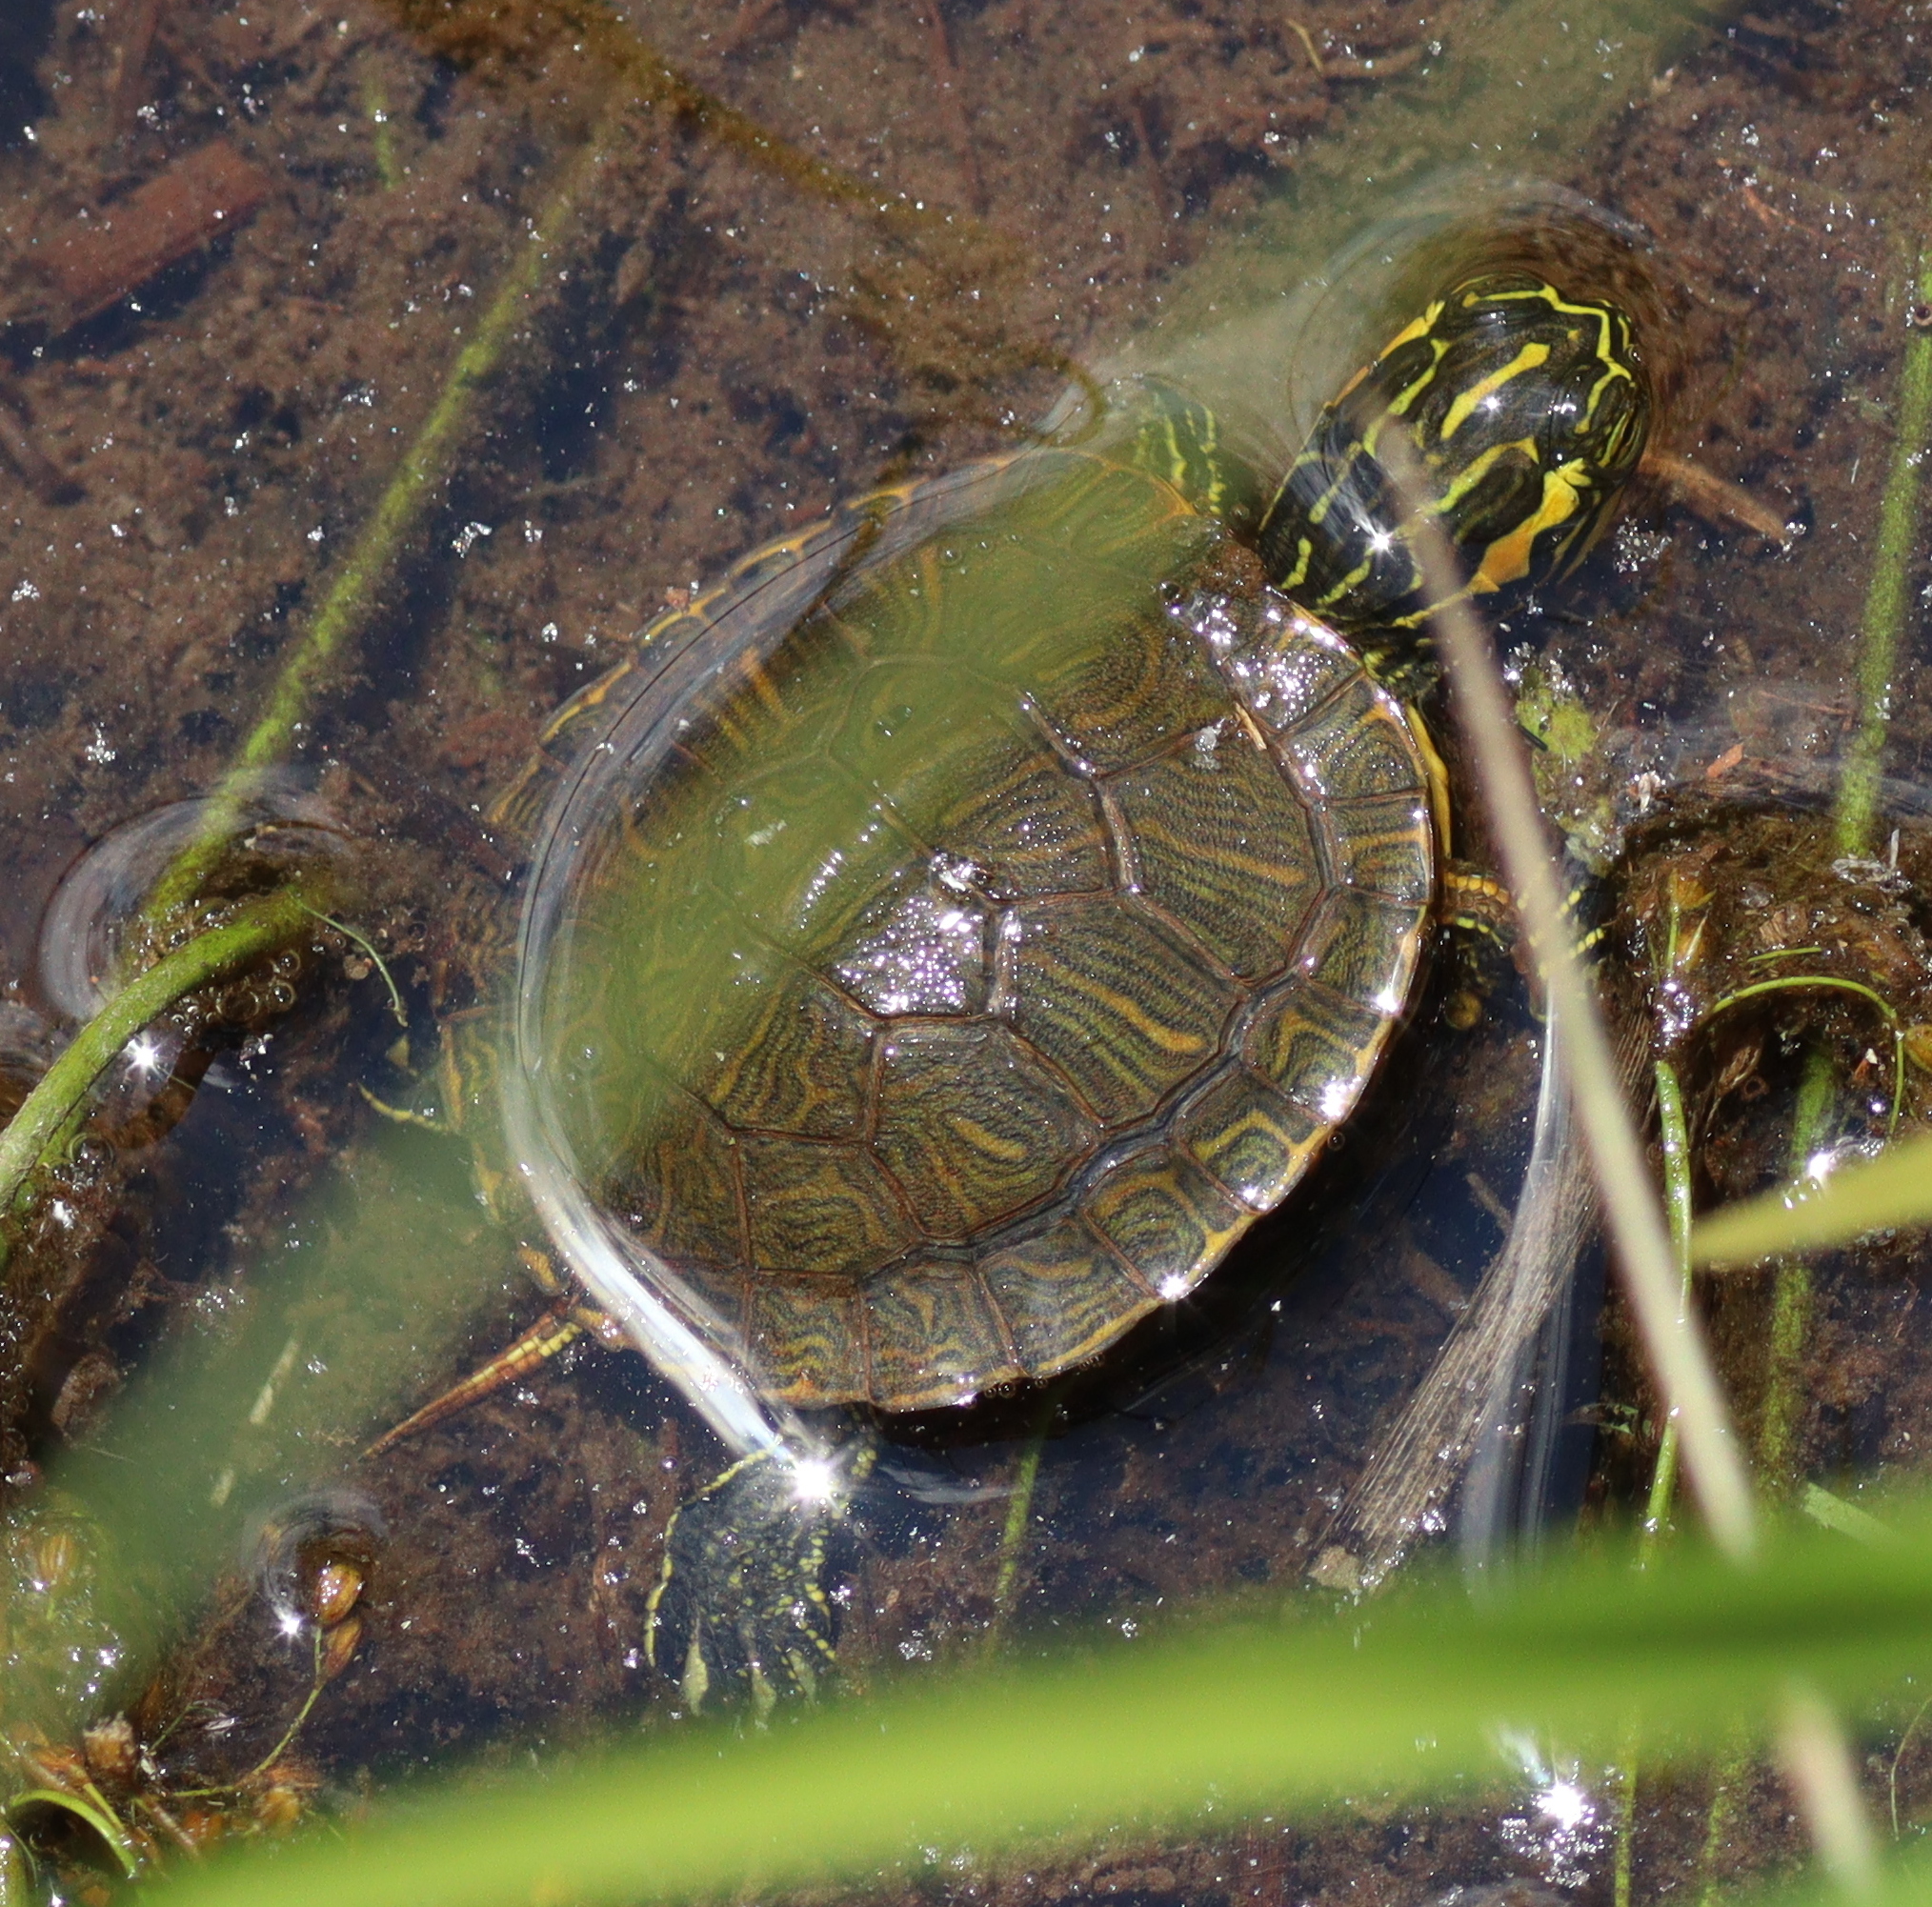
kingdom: Animalia
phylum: Chordata
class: Testudines
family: Emydidae
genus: Trachemys
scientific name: Trachemys scripta
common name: Slider
